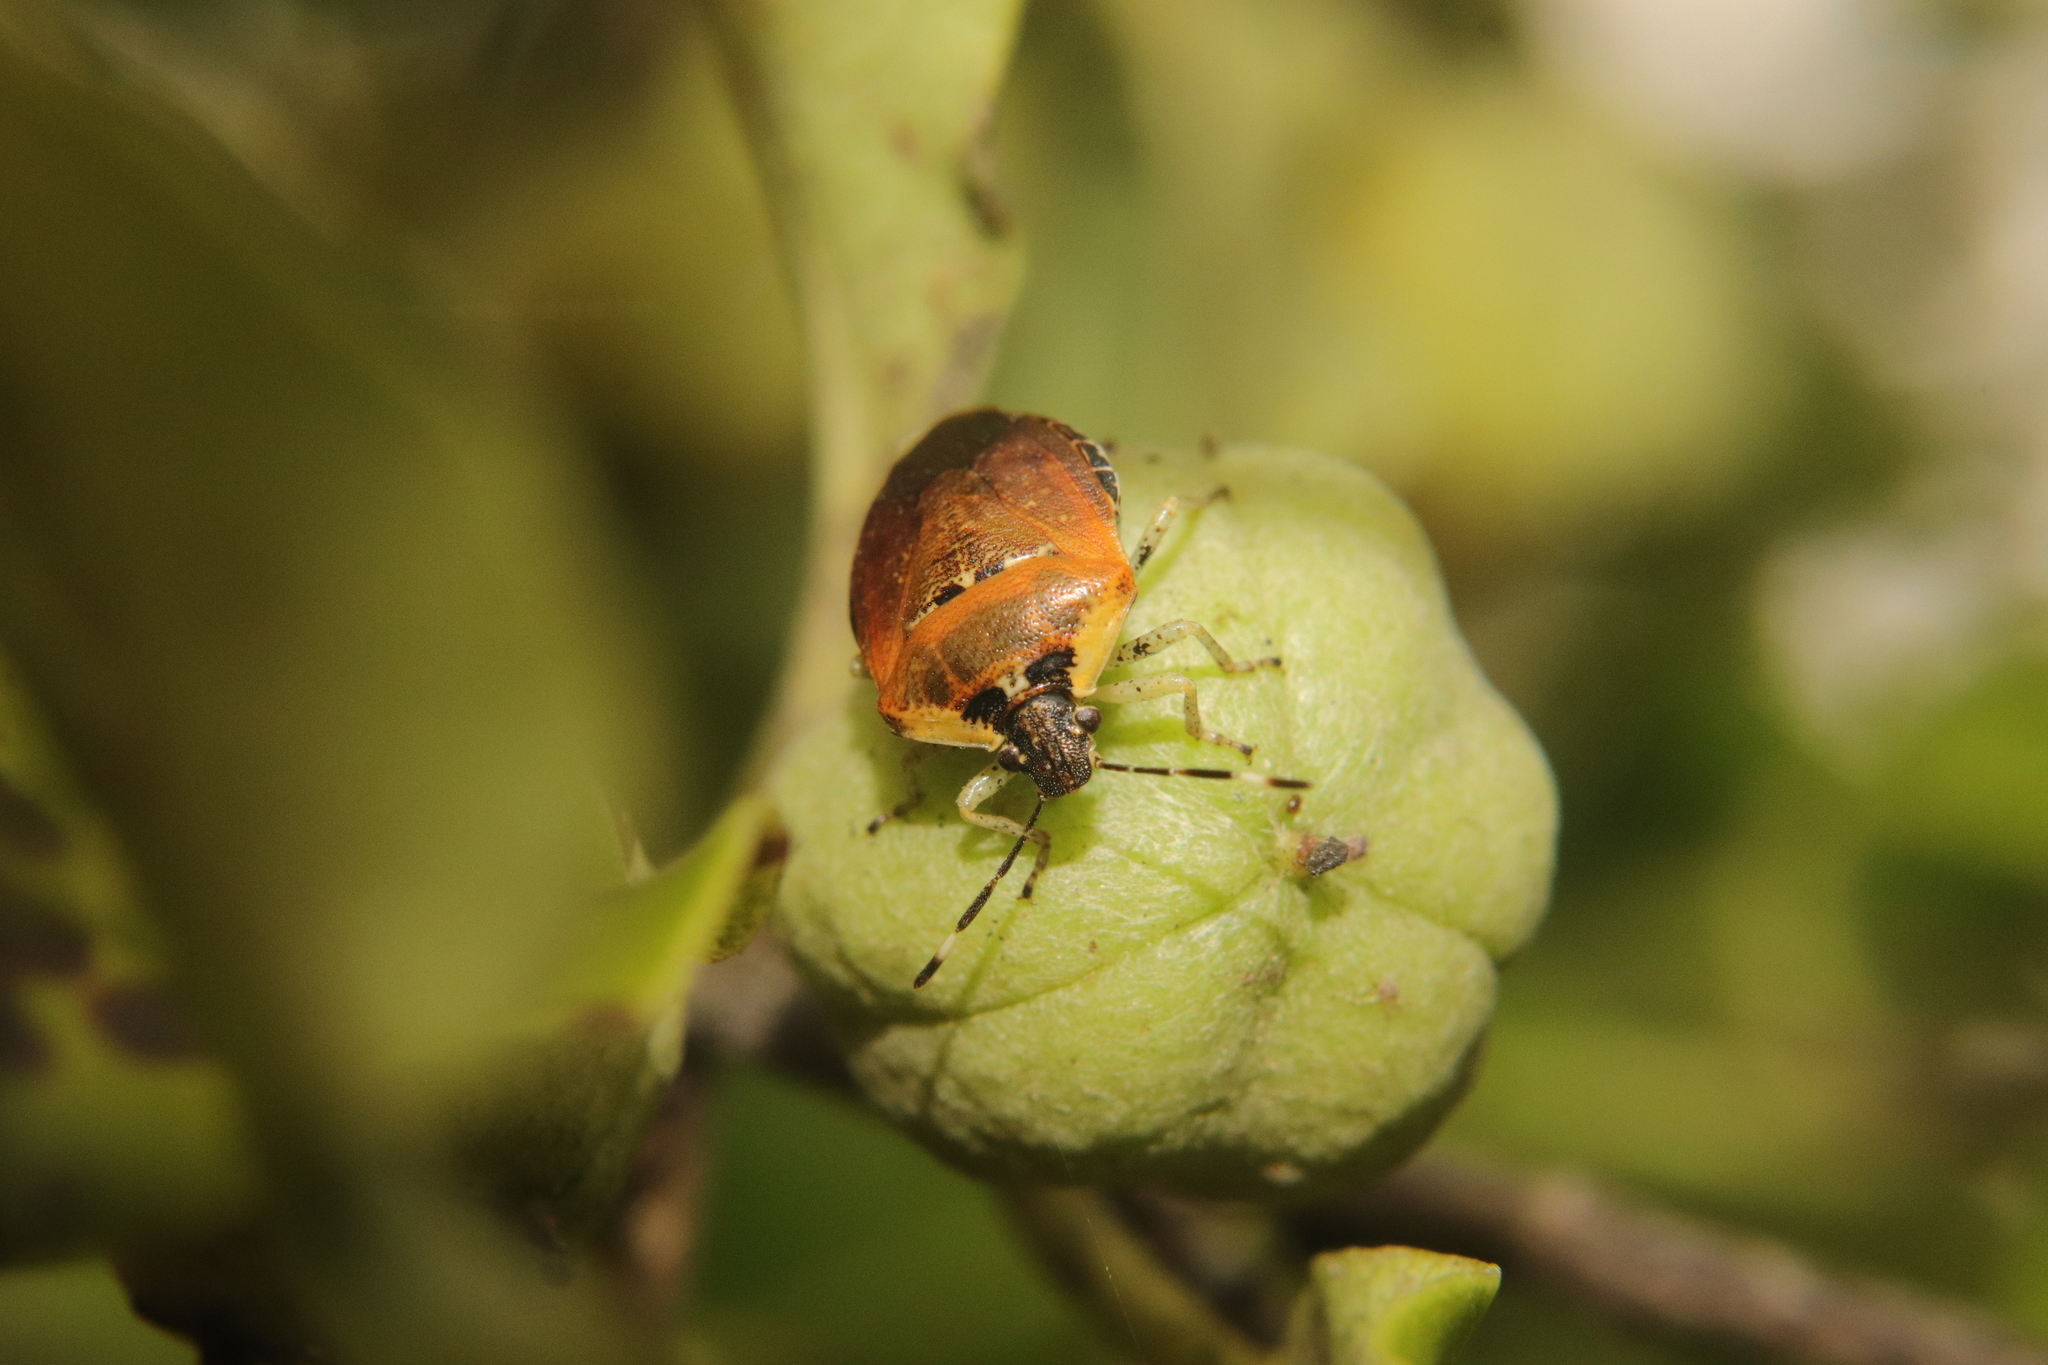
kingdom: Animalia
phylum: Arthropoda
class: Insecta
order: Hemiptera
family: Pentatomidae
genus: Monteithiella
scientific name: Monteithiella
